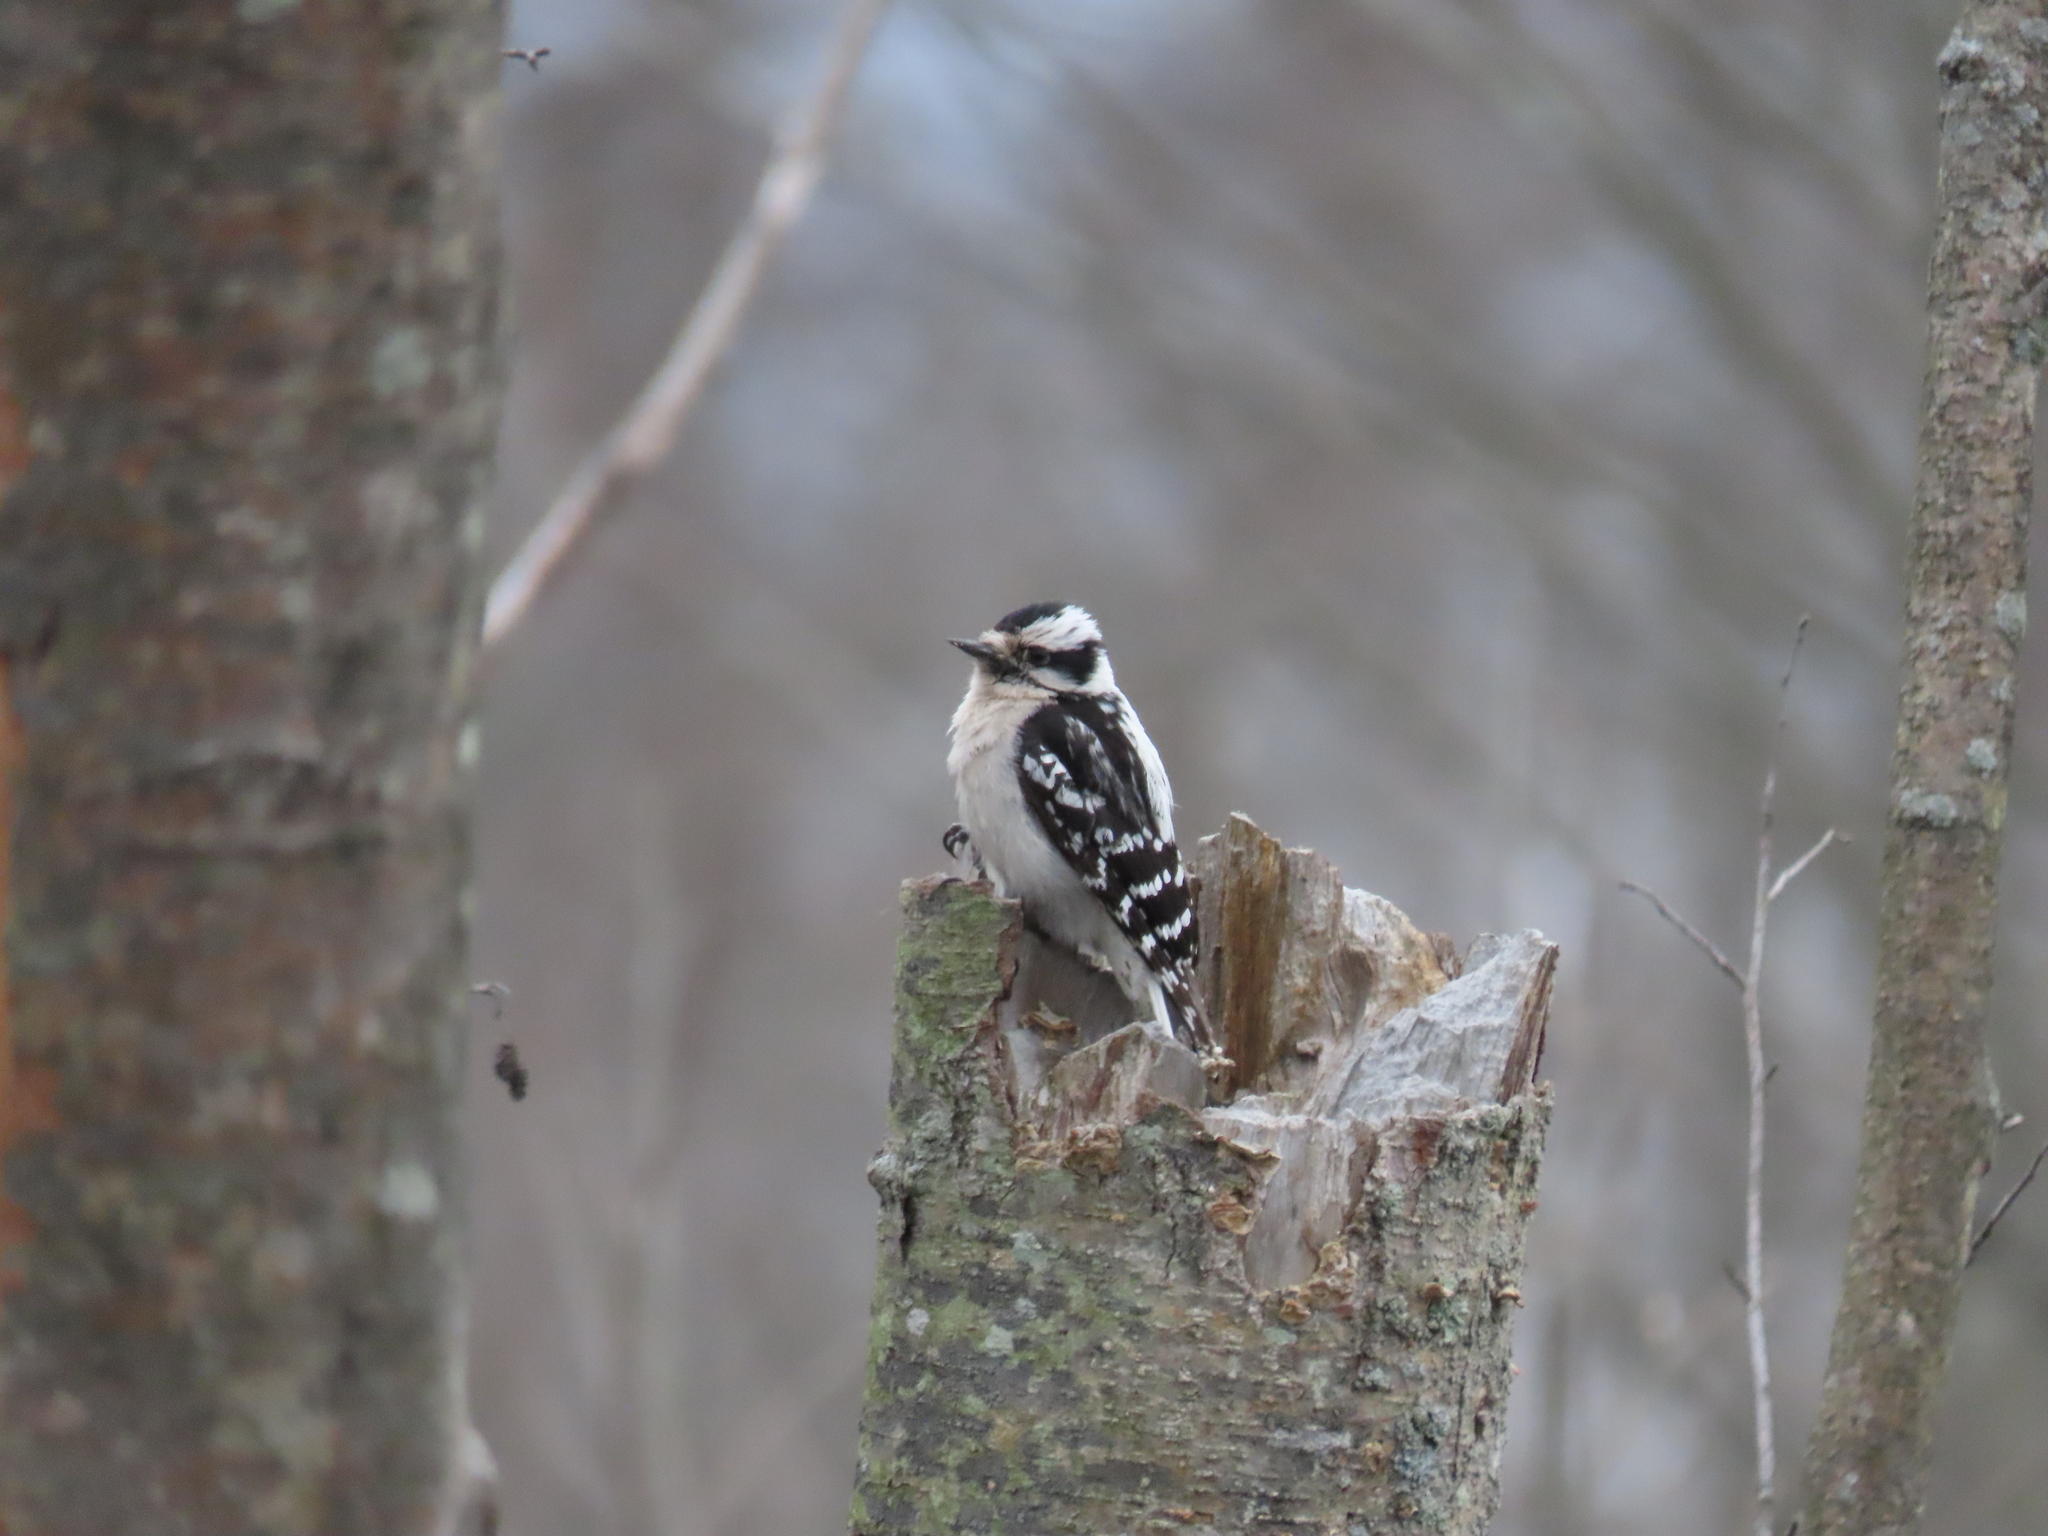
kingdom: Animalia
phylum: Chordata
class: Aves
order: Piciformes
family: Picidae
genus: Dryobates
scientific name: Dryobates pubescens
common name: Downy woodpecker
